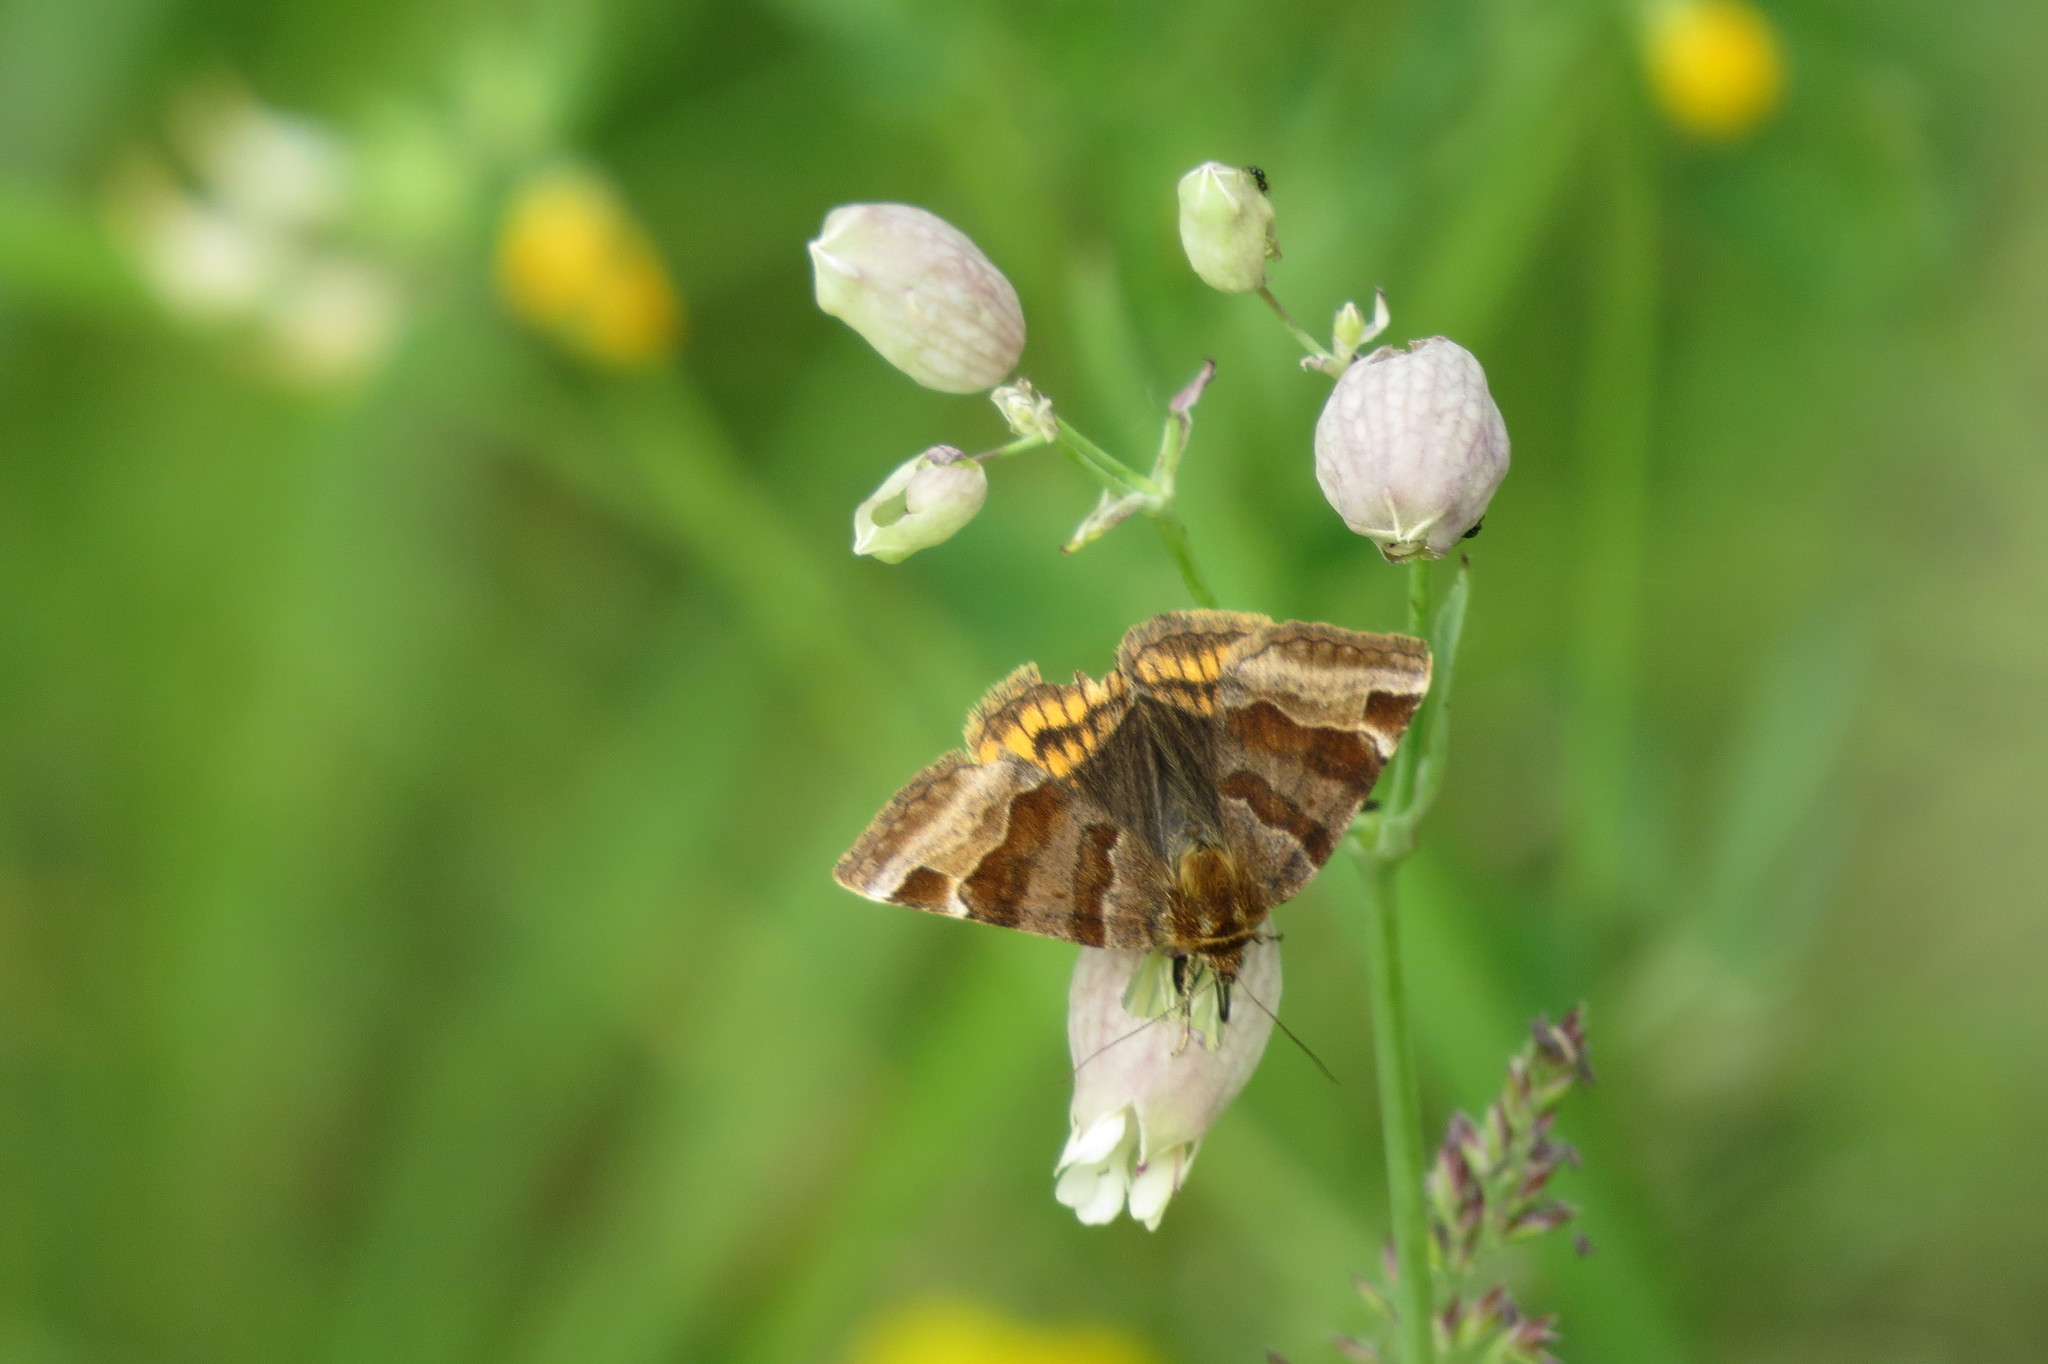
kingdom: Animalia
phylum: Arthropoda
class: Insecta
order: Lepidoptera
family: Erebidae
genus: Euclidia
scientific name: Euclidia glyphica
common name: Burnet companion
